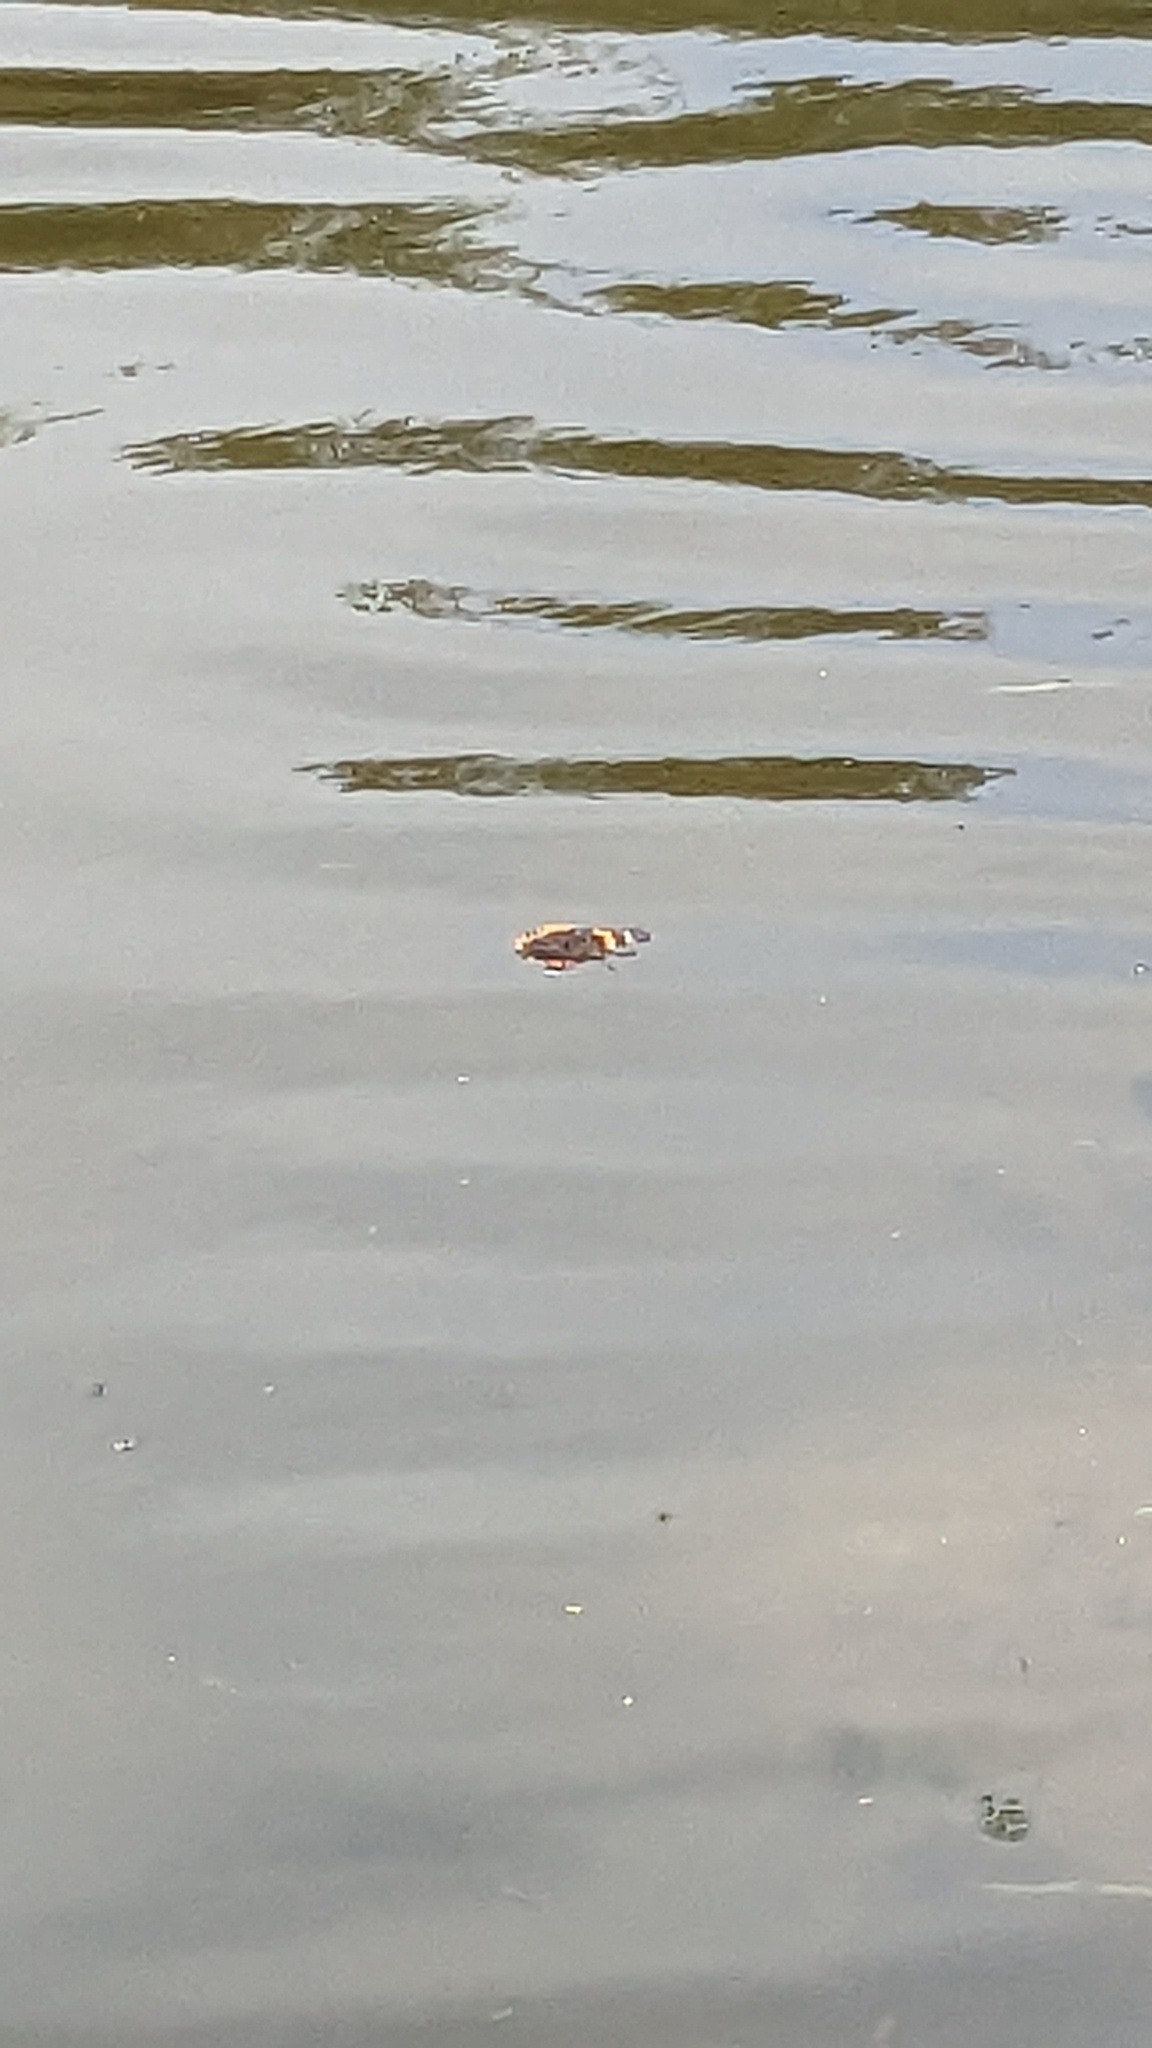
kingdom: Animalia
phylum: Arthropoda
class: Insecta
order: Lepidoptera
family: Nymphalidae
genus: Vanessa
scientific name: Vanessa atalanta
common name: Red admiral
